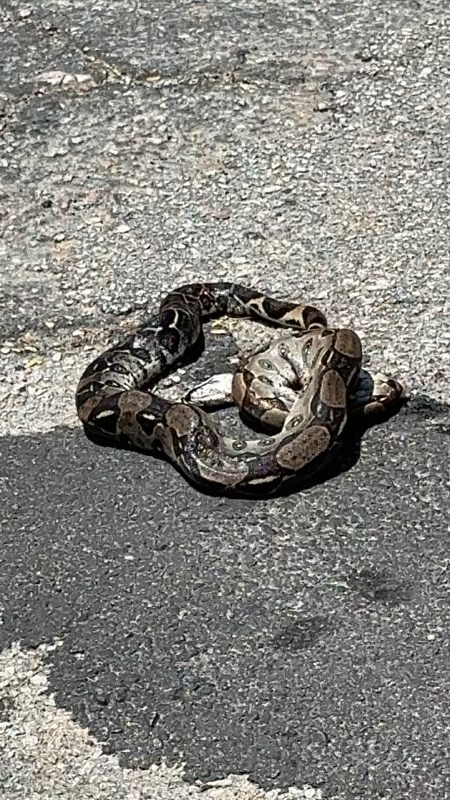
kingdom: Animalia
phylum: Chordata
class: Squamata
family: Boidae
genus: Boa
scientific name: Boa constrictor
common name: Boa constrictor
